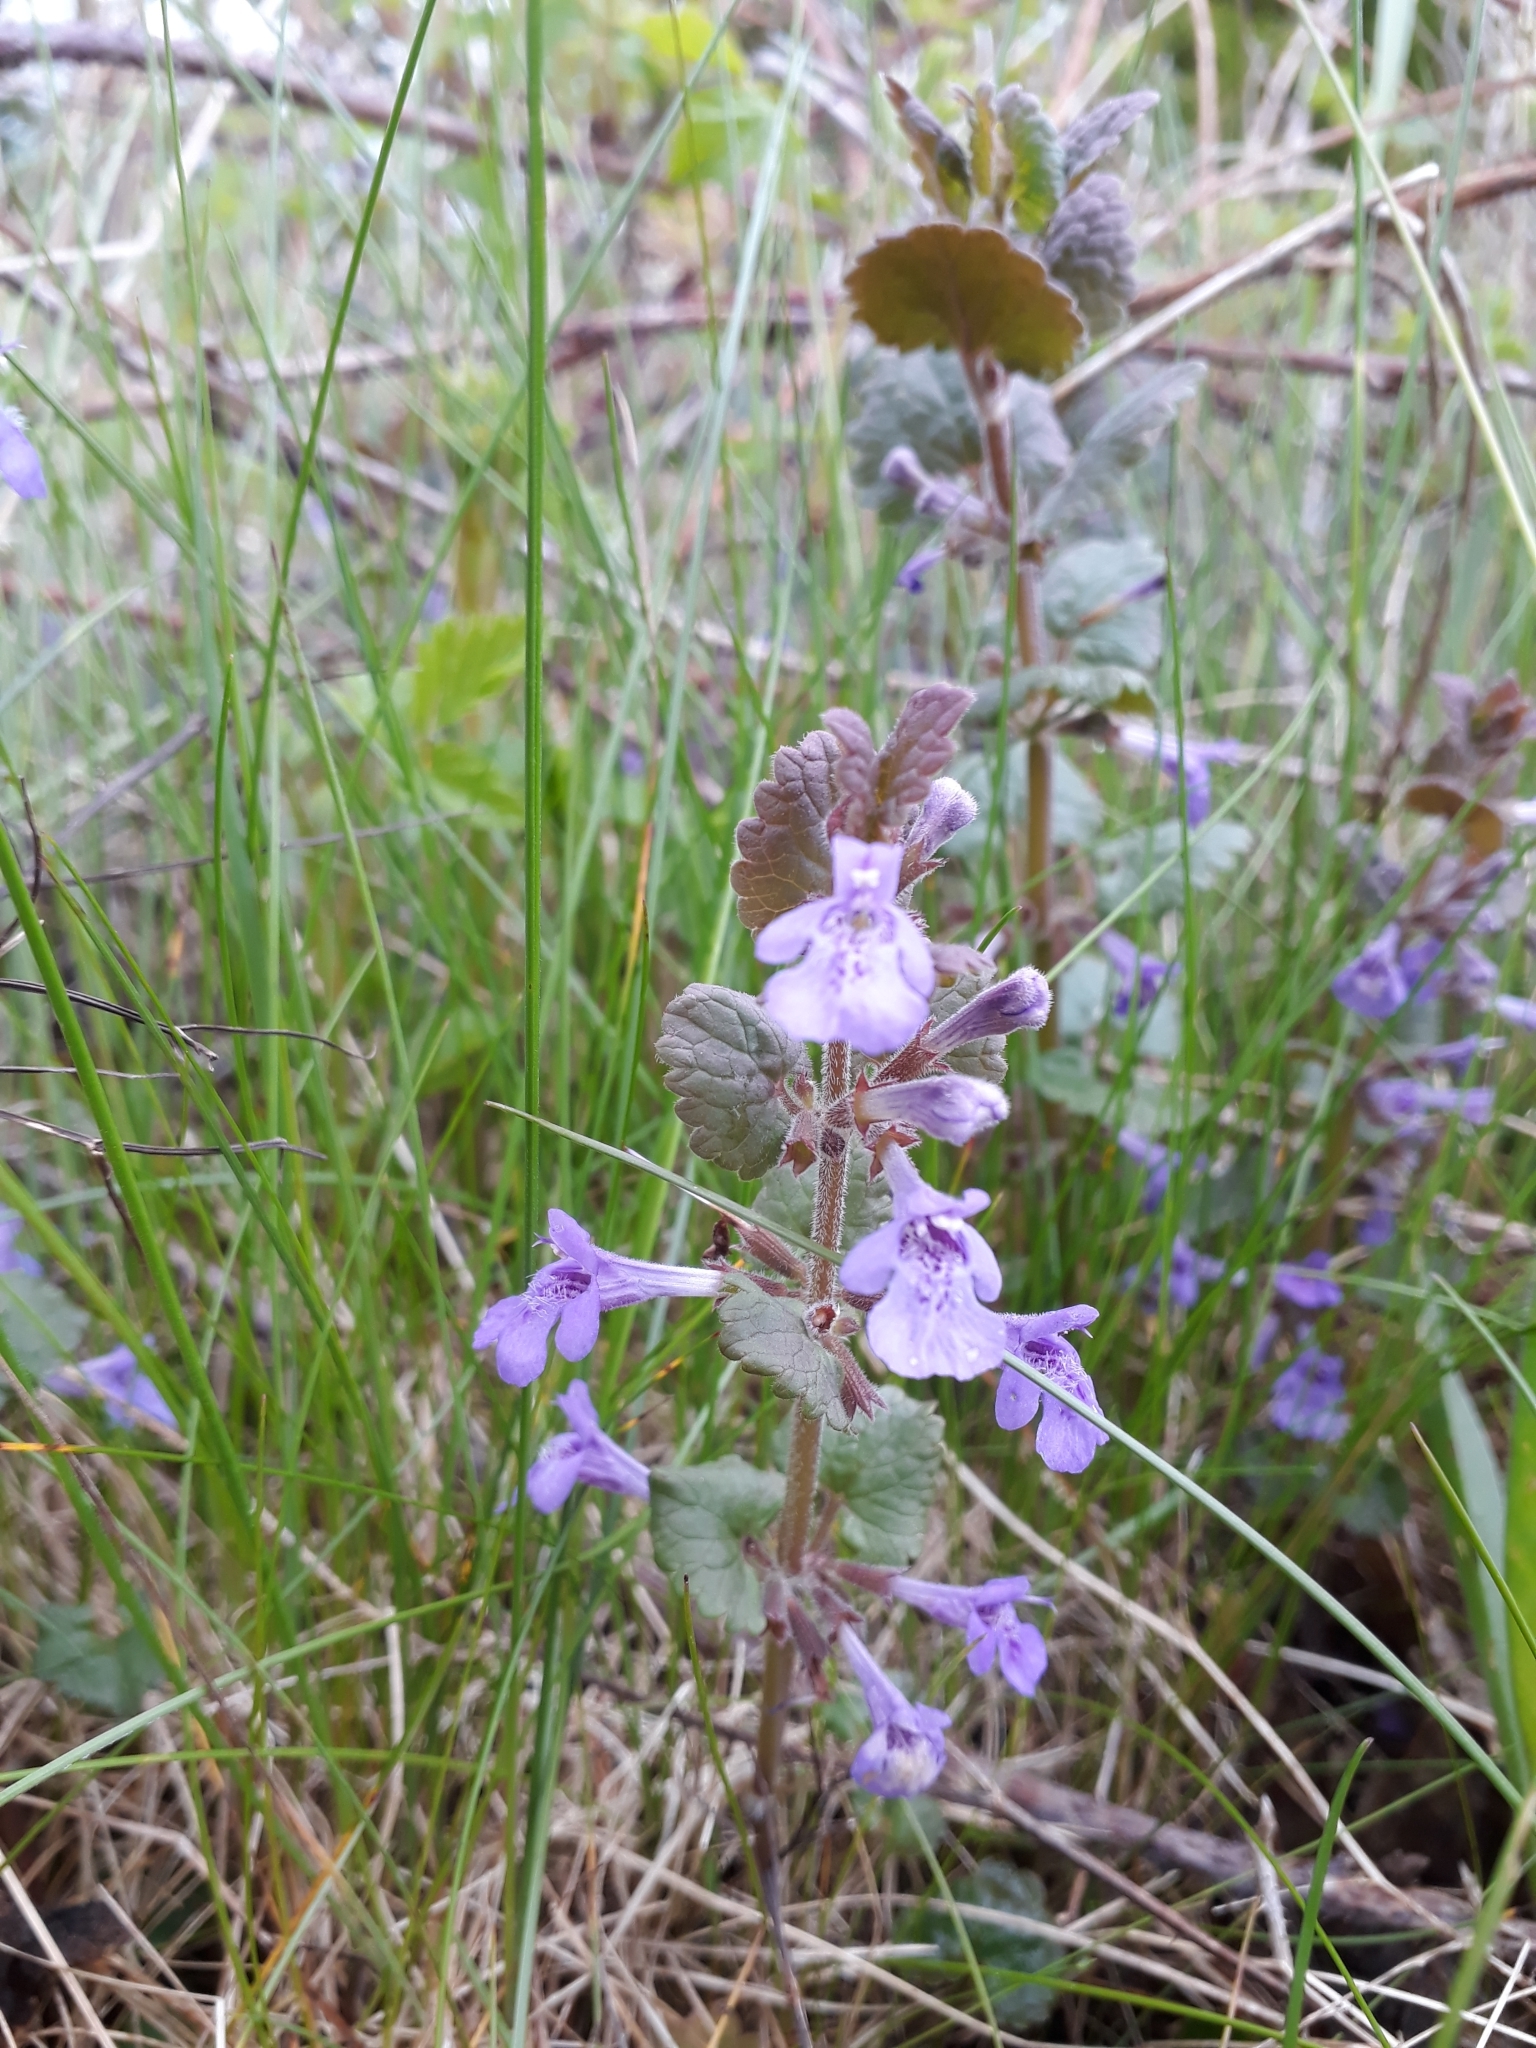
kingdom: Plantae
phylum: Tracheophyta
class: Magnoliopsida
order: Lamiales
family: Lamiaceae
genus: Glechoma
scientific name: Glechoma hederacea
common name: Ground ivy
